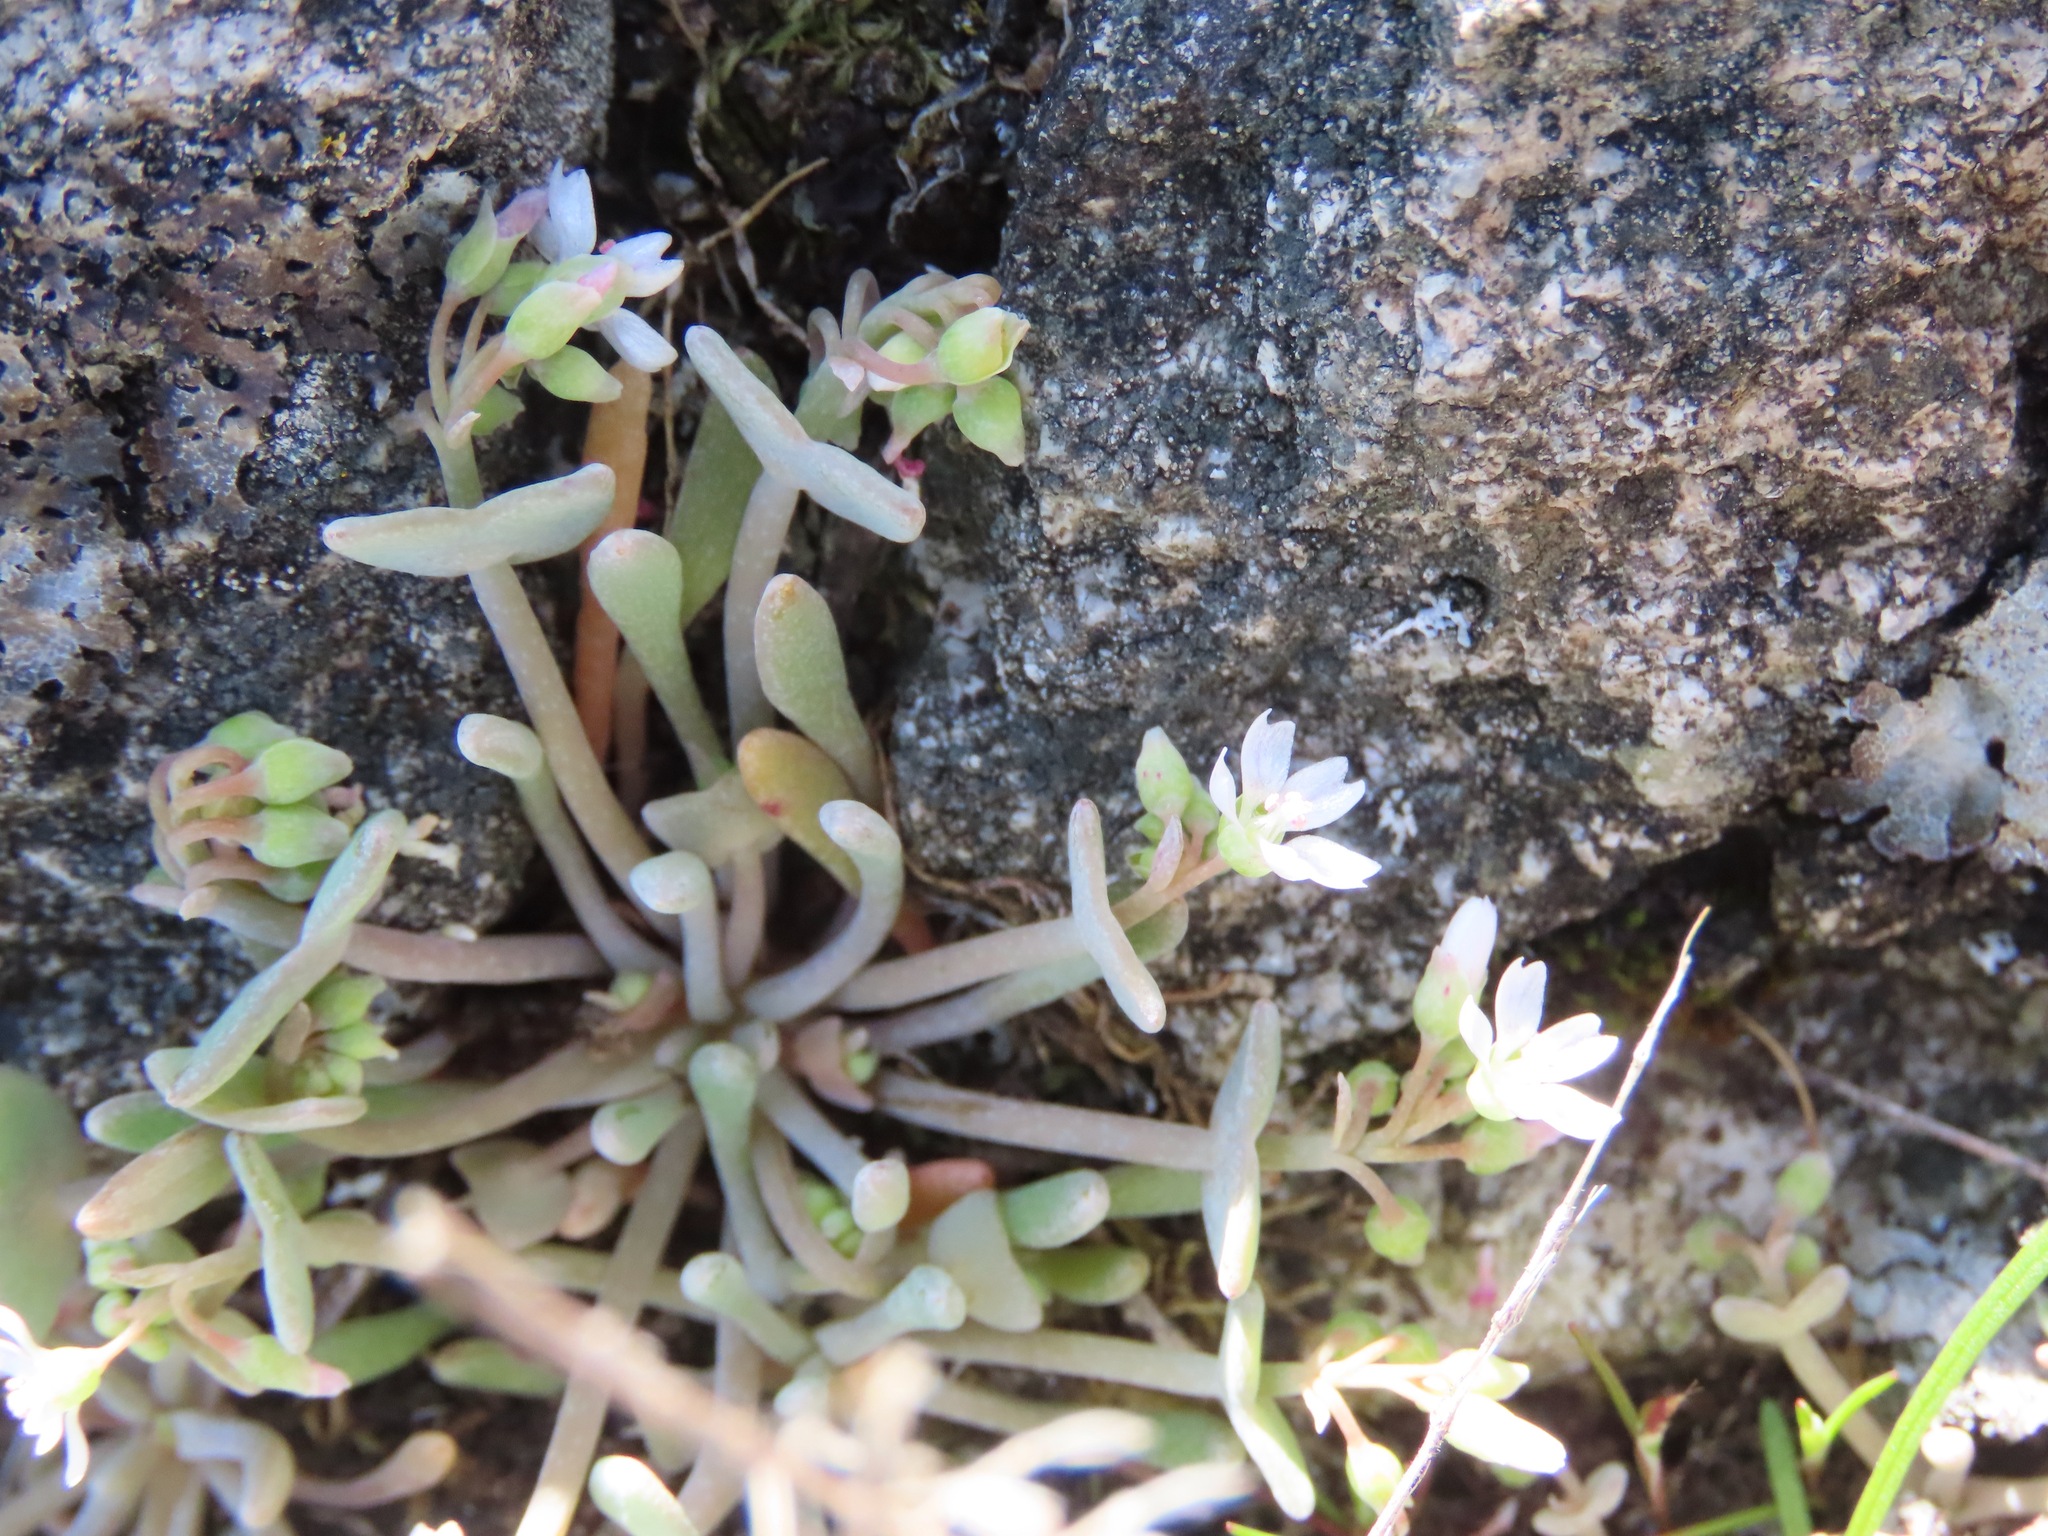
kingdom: Plantae
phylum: Tracheophyta
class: Magnoliopsida
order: Caryophyllales
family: Montiaceae
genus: Claytonia
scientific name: Claytonia exigua
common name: Pale spring beauty
